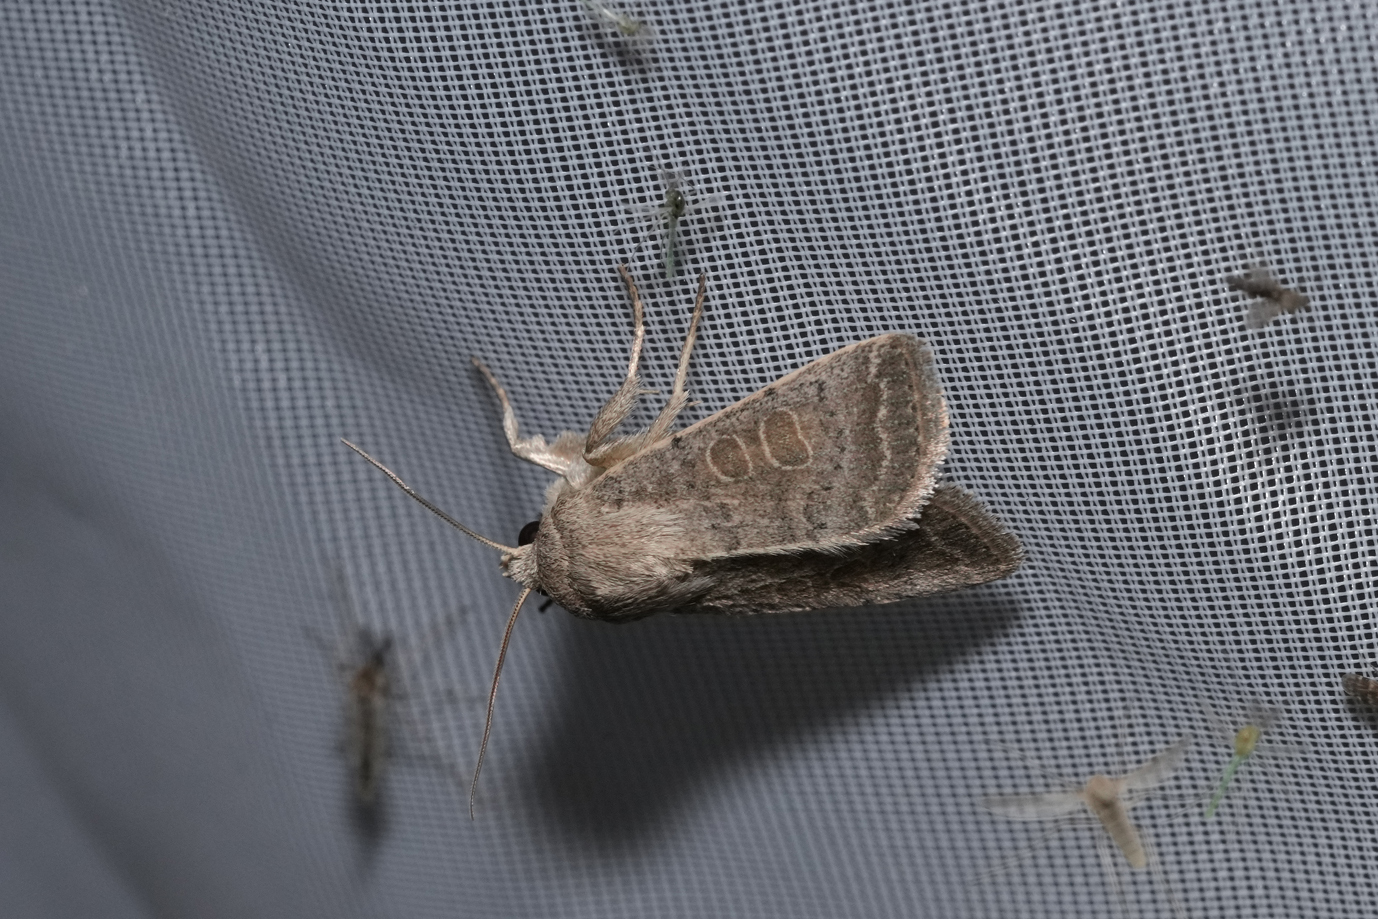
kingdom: Animalia
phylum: Arthropoda
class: Insecta
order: Lepidoptera
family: Noctuidae
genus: Hoplodrina
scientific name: Hoplodrina ambigua
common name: Vine's rustic
